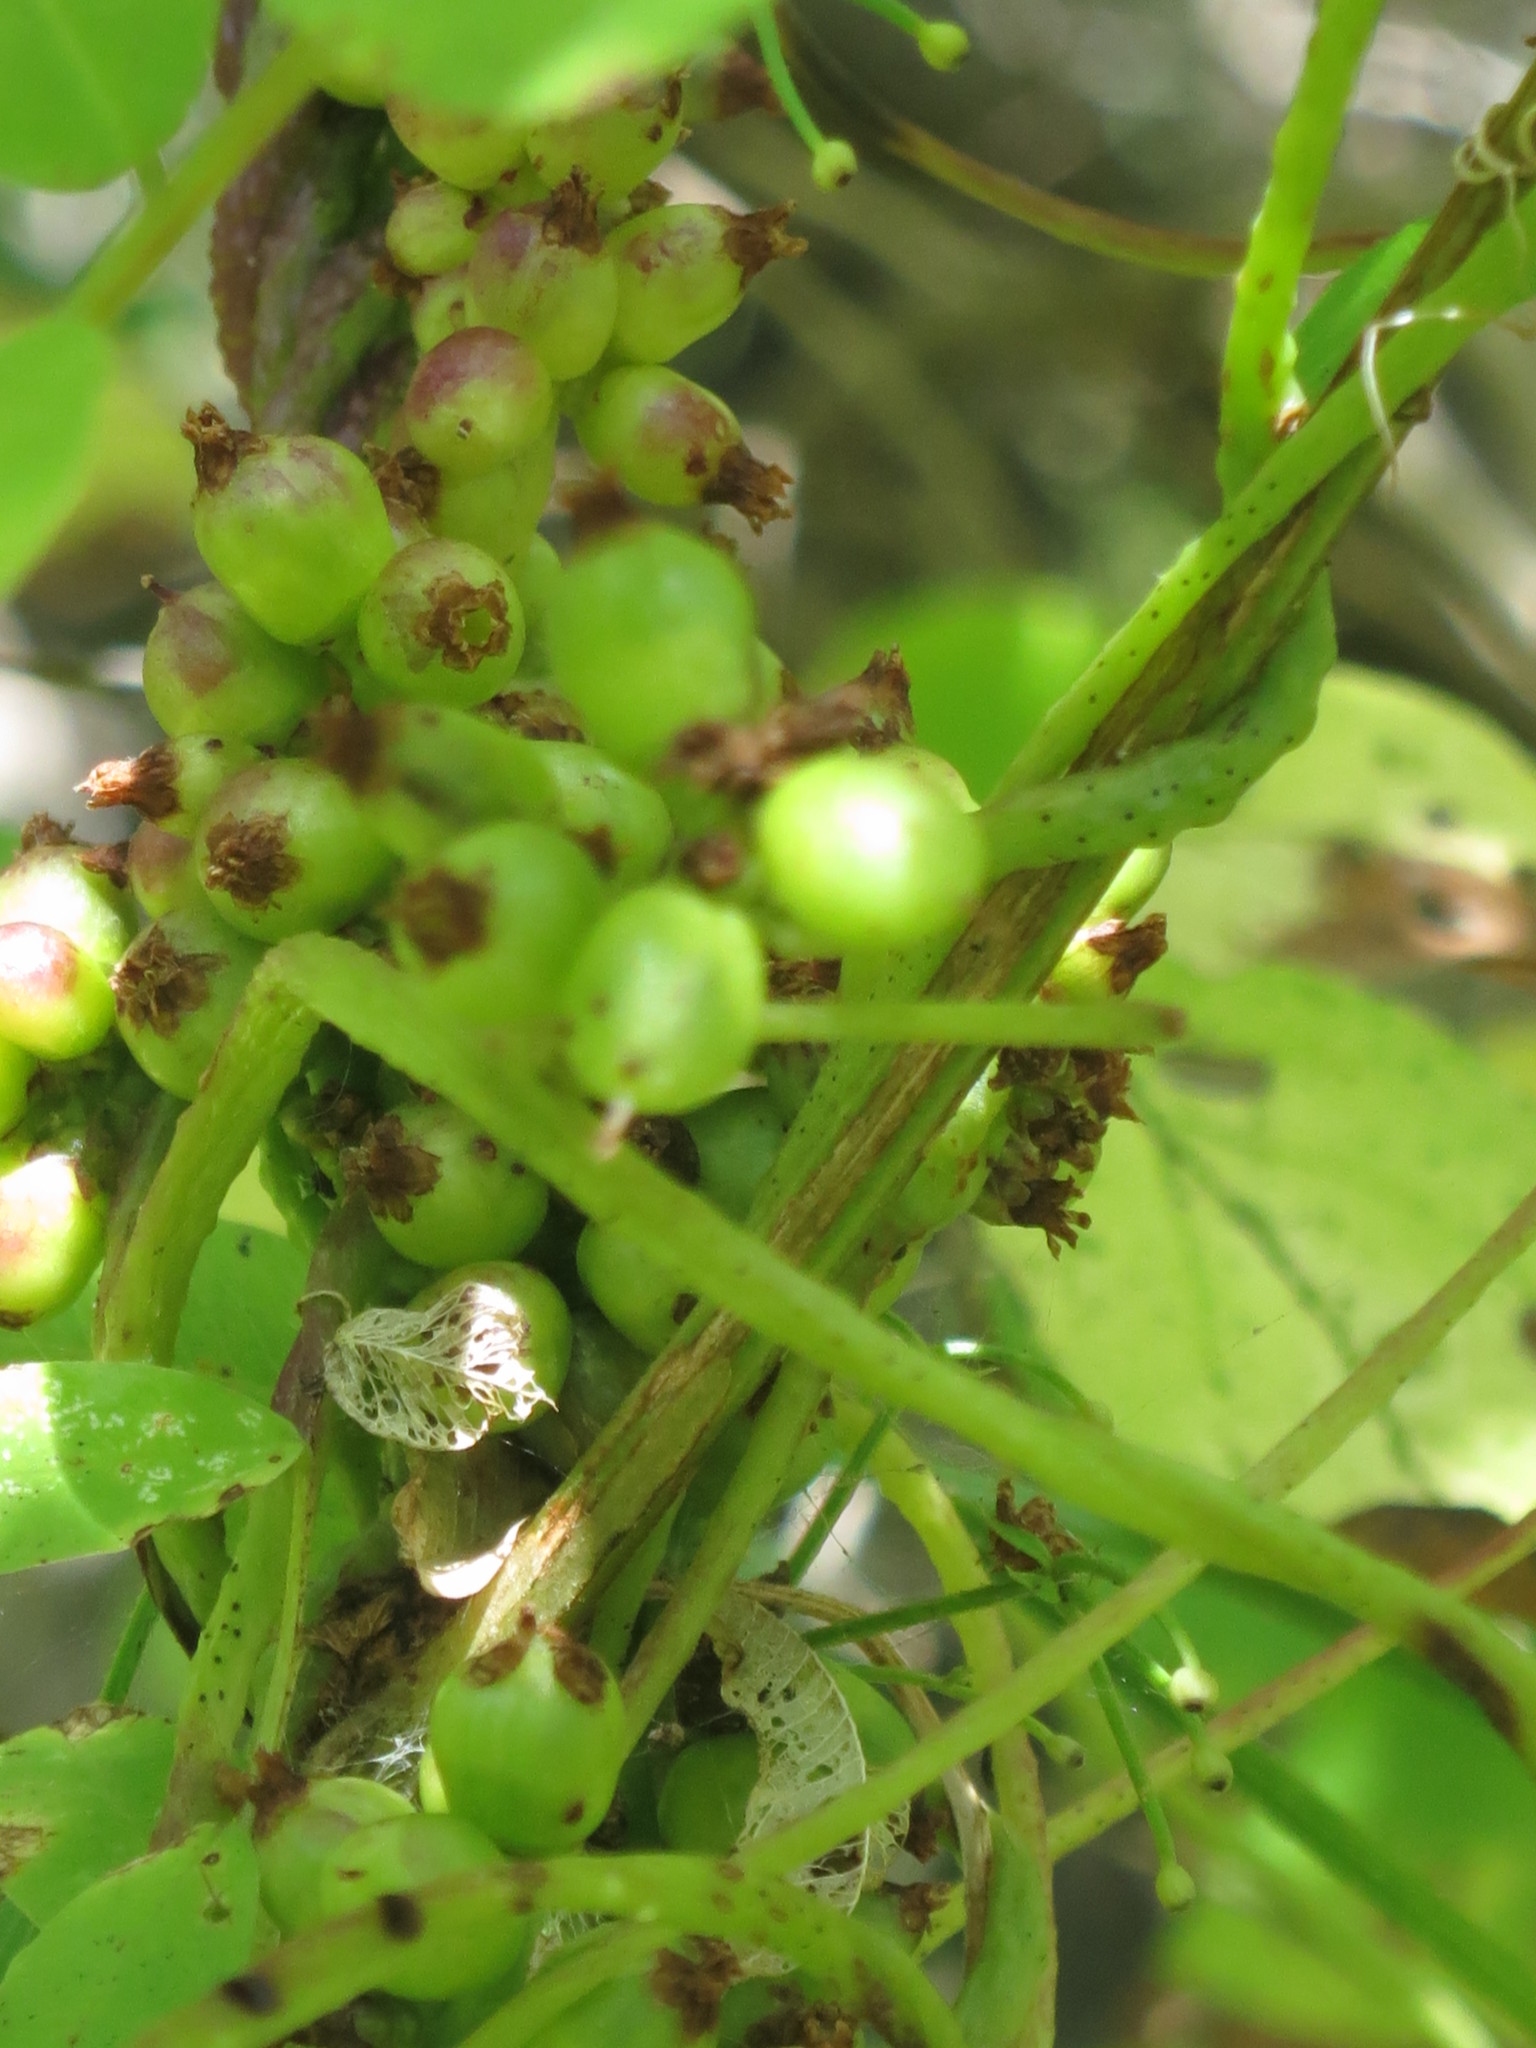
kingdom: Plantae
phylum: Tracheophyta
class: Magnoliopsida
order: Solanales
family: Convolvulaceae
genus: Cuscuta
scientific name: Cuscuta japonica
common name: Japanese dodder
